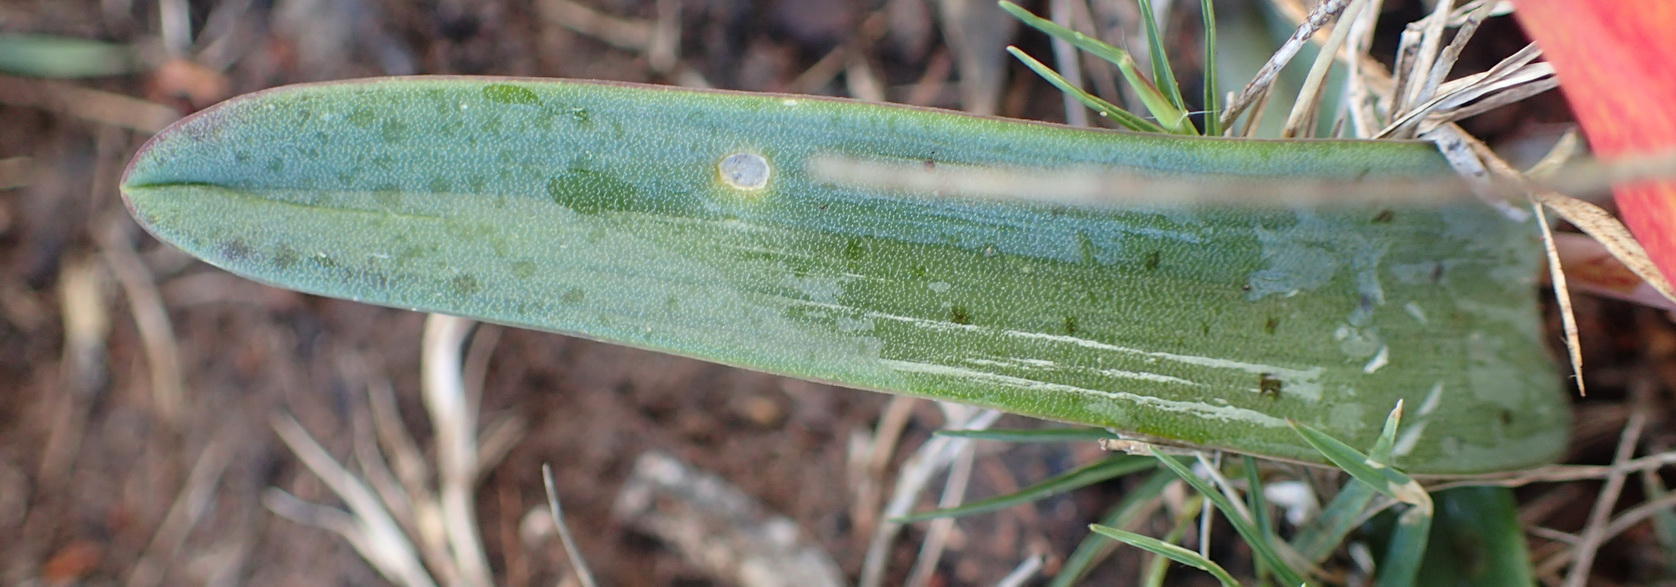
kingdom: Plantae
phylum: Tracheophyta
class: Liliopsida
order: Asparagales
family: Asparagaceae
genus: Lachenalia
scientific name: Lachenalia bulbifera
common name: Red lachenalia
